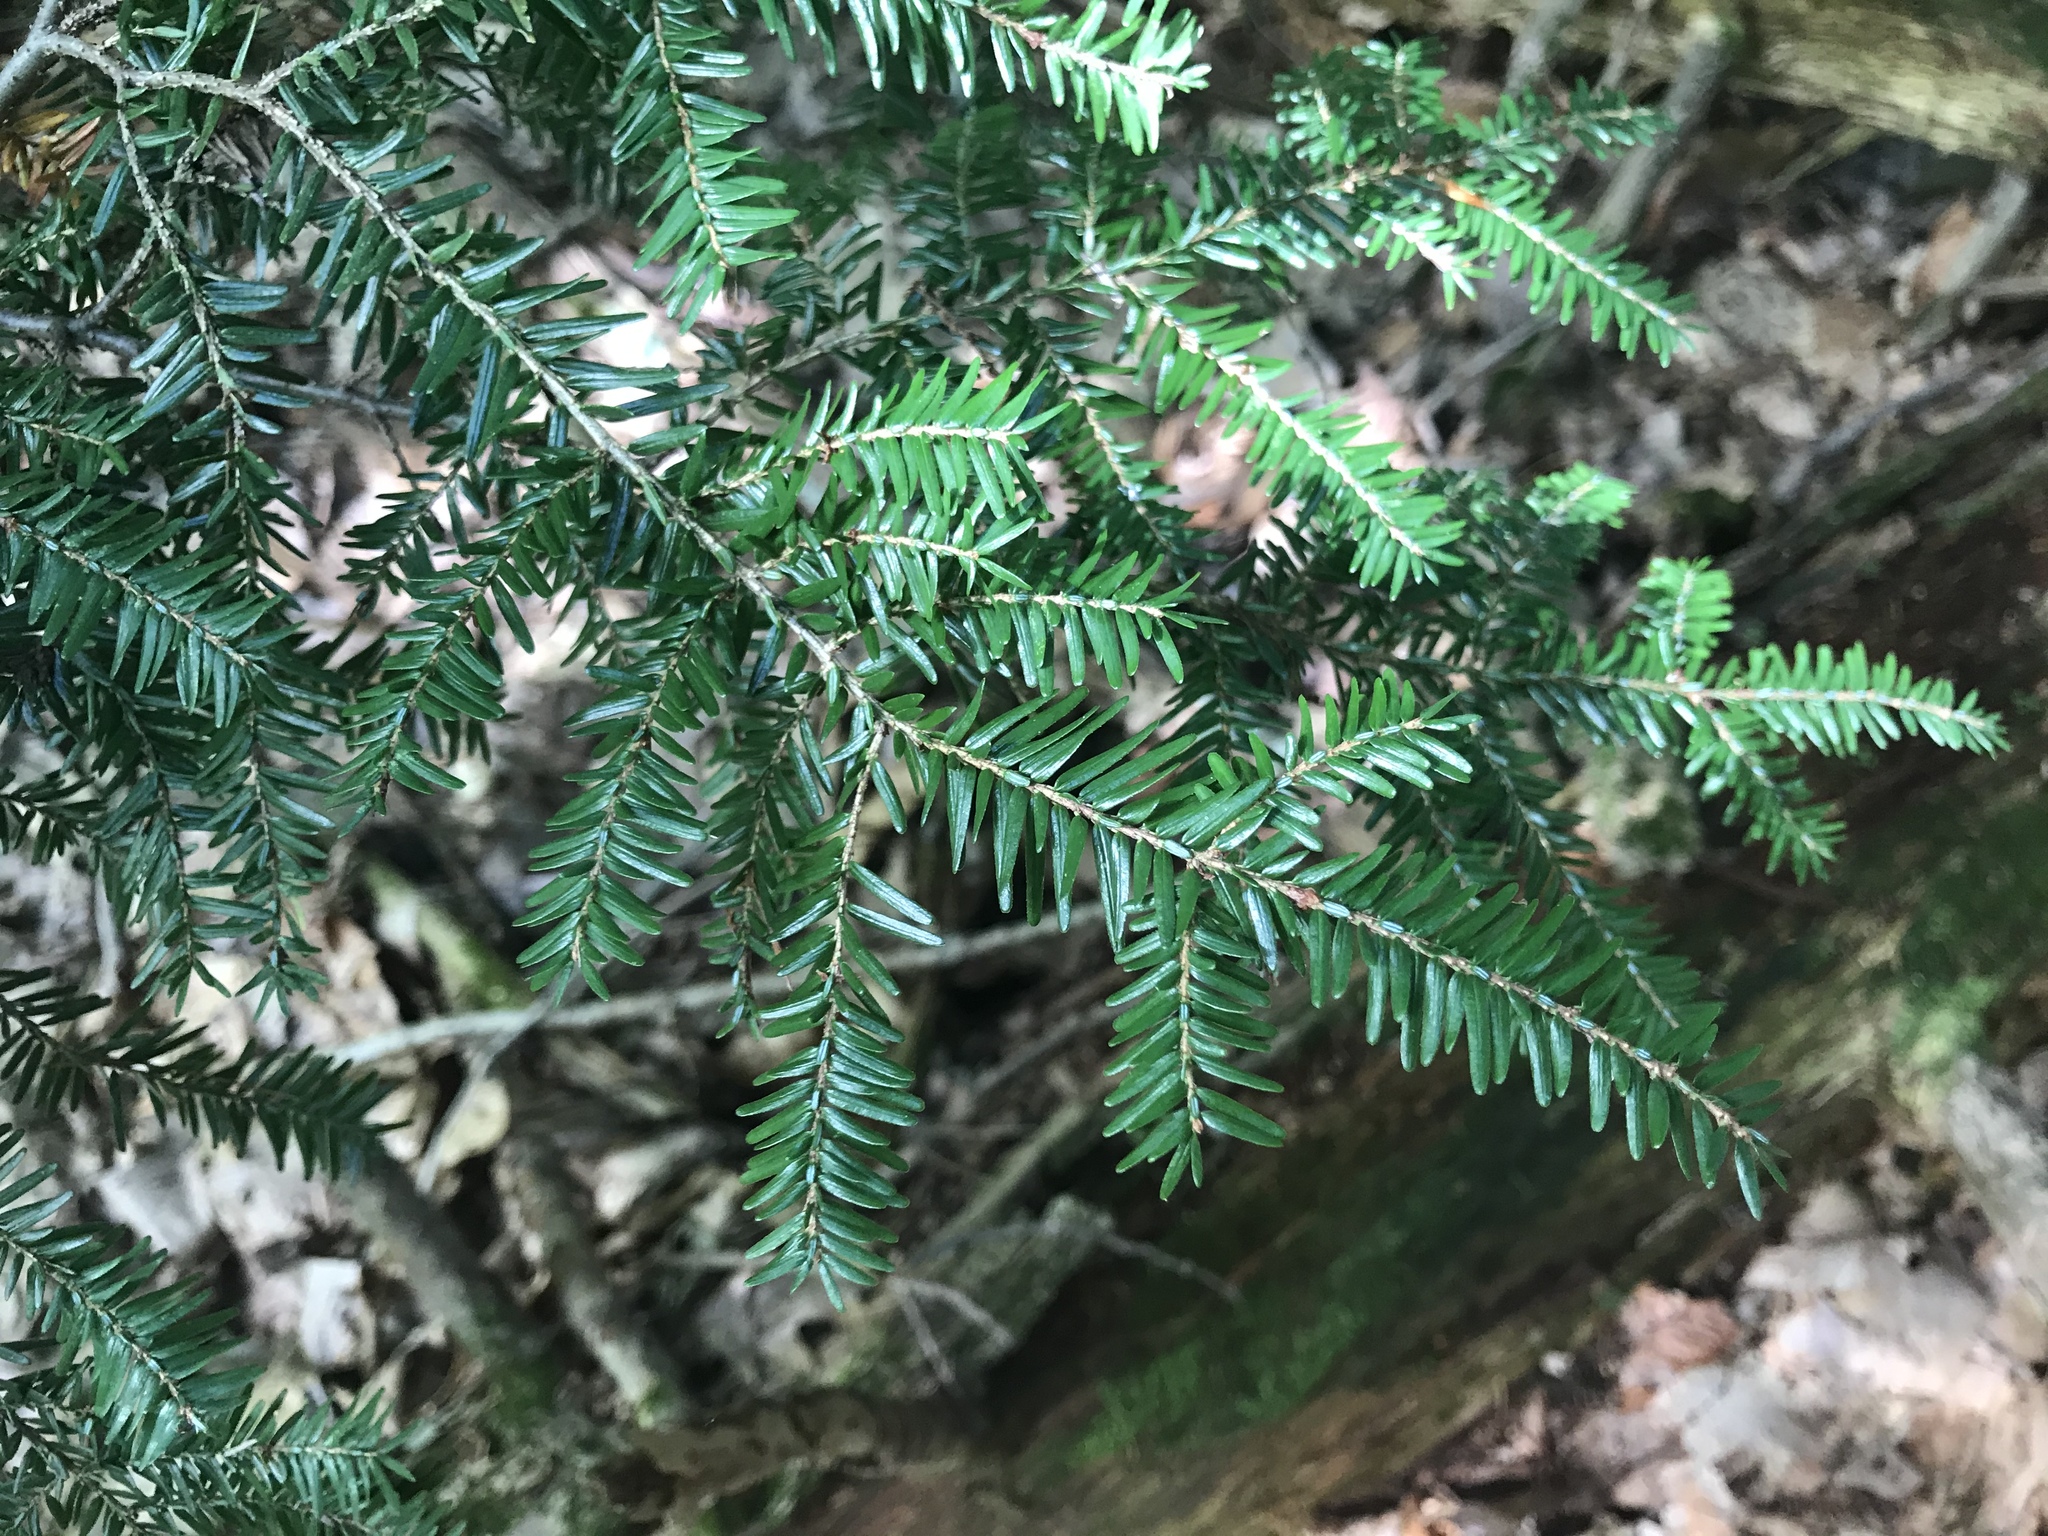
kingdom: Plantae
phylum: Tracheophyta
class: Pinopsida
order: Pinales
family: Pinaceae
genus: Tsuga
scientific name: Tsuga canadensis
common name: Eastern hemlock
